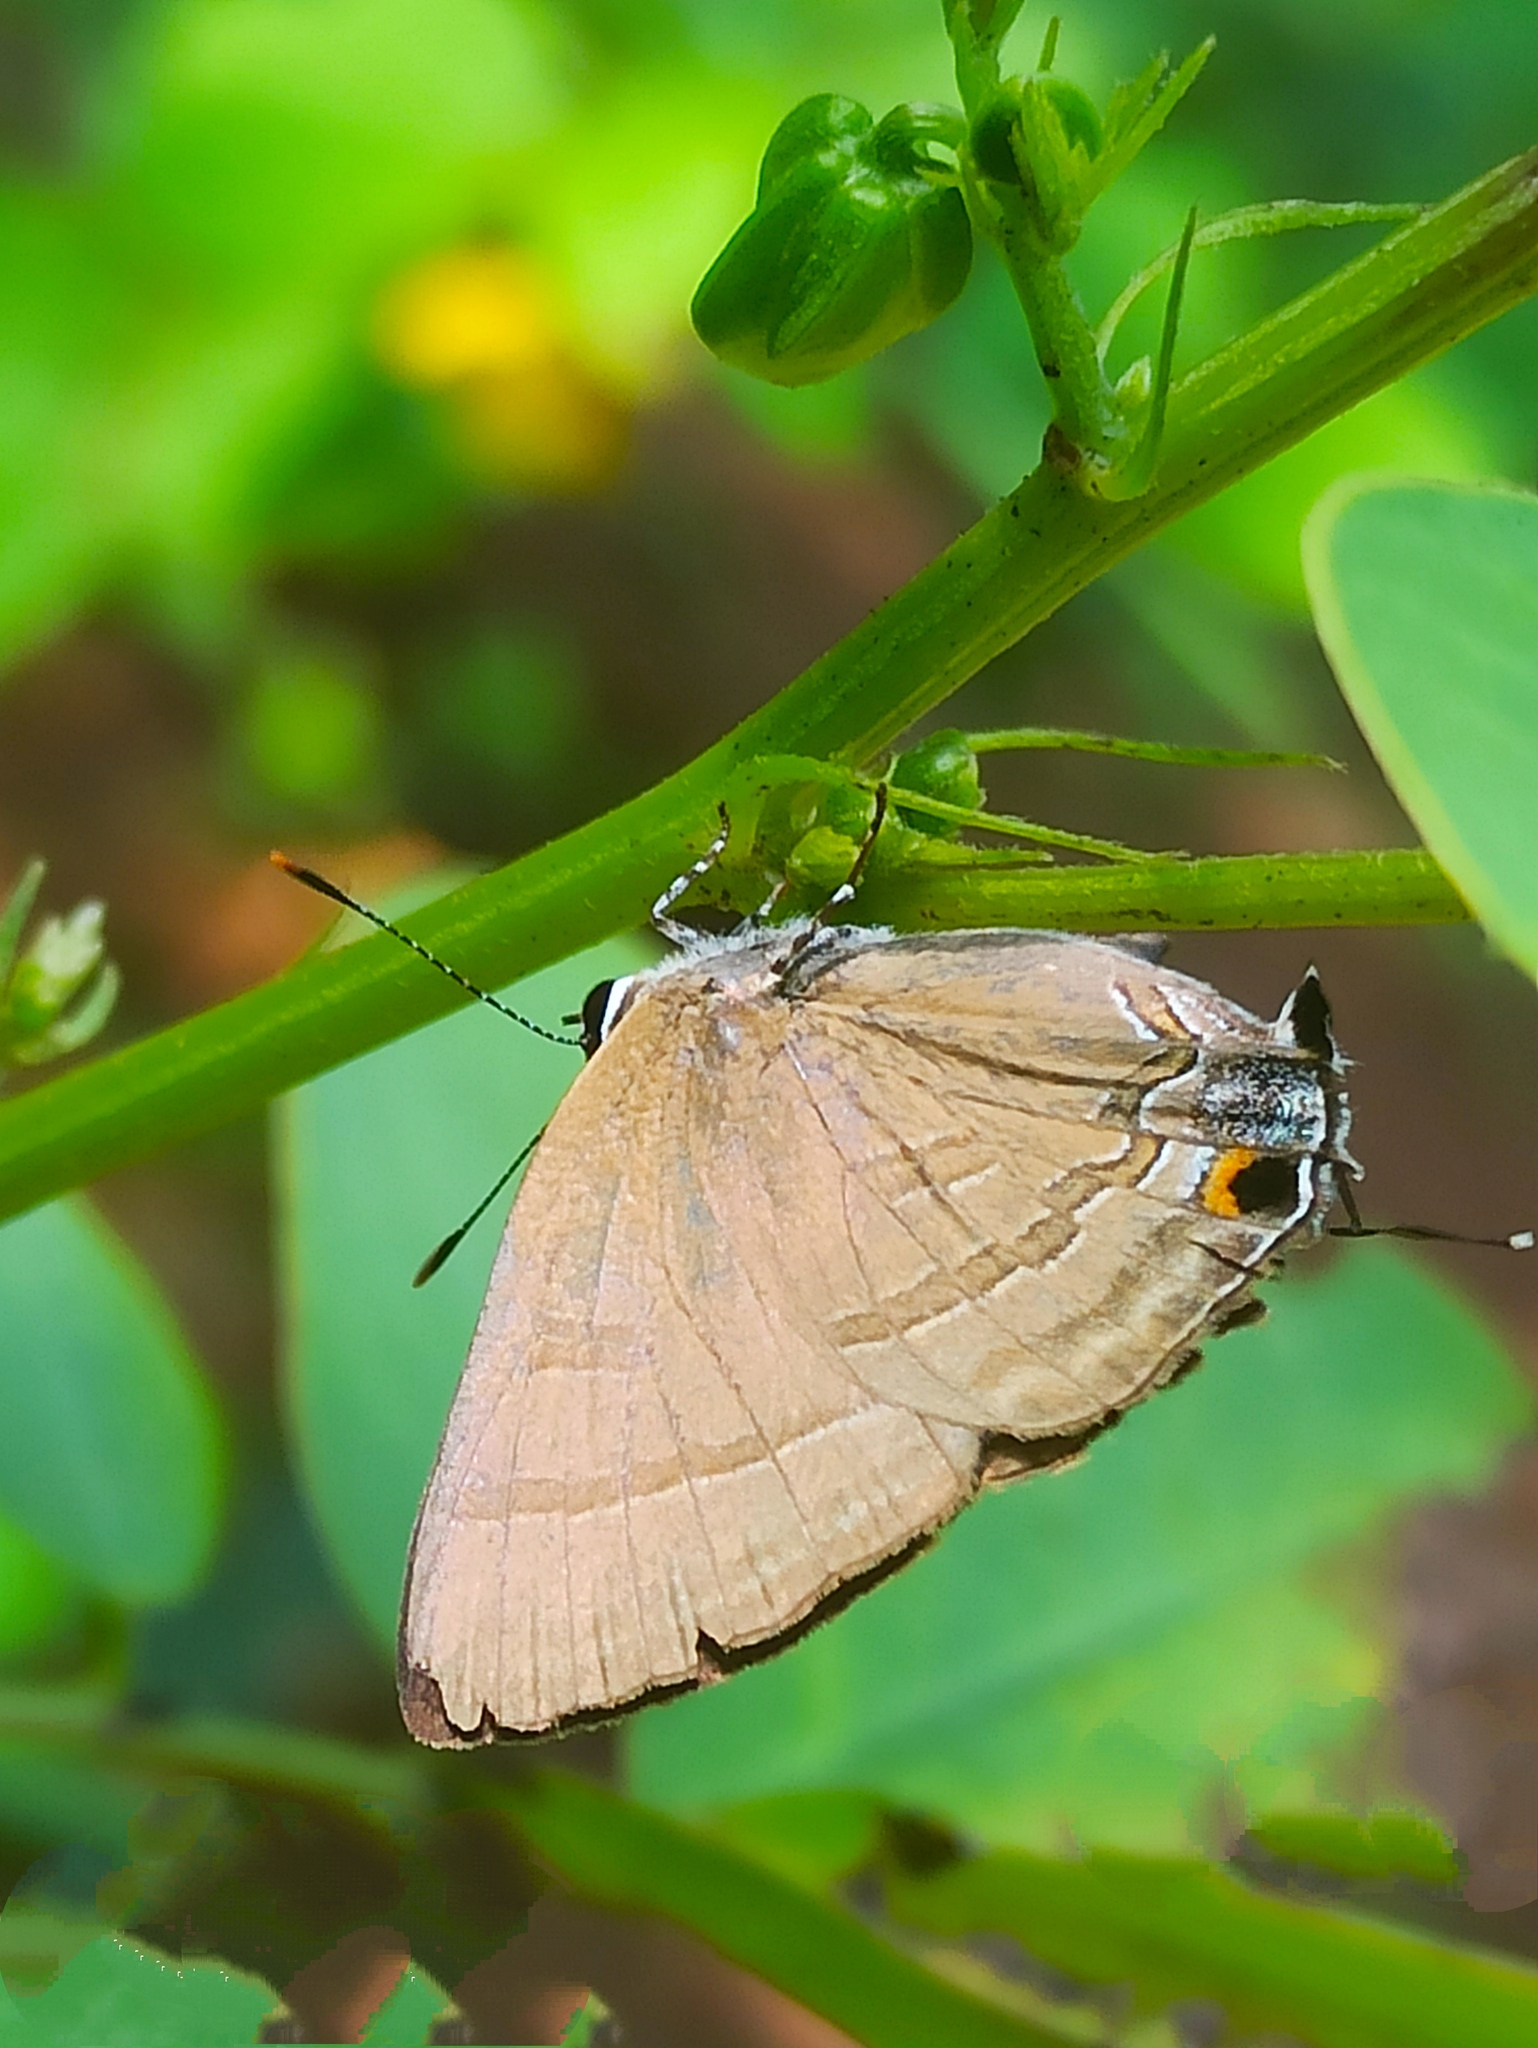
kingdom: Animalia
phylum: Arthropoda
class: Insecta
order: Lepidoptera
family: Lycaenidae
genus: Rapala
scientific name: Rapala manea
